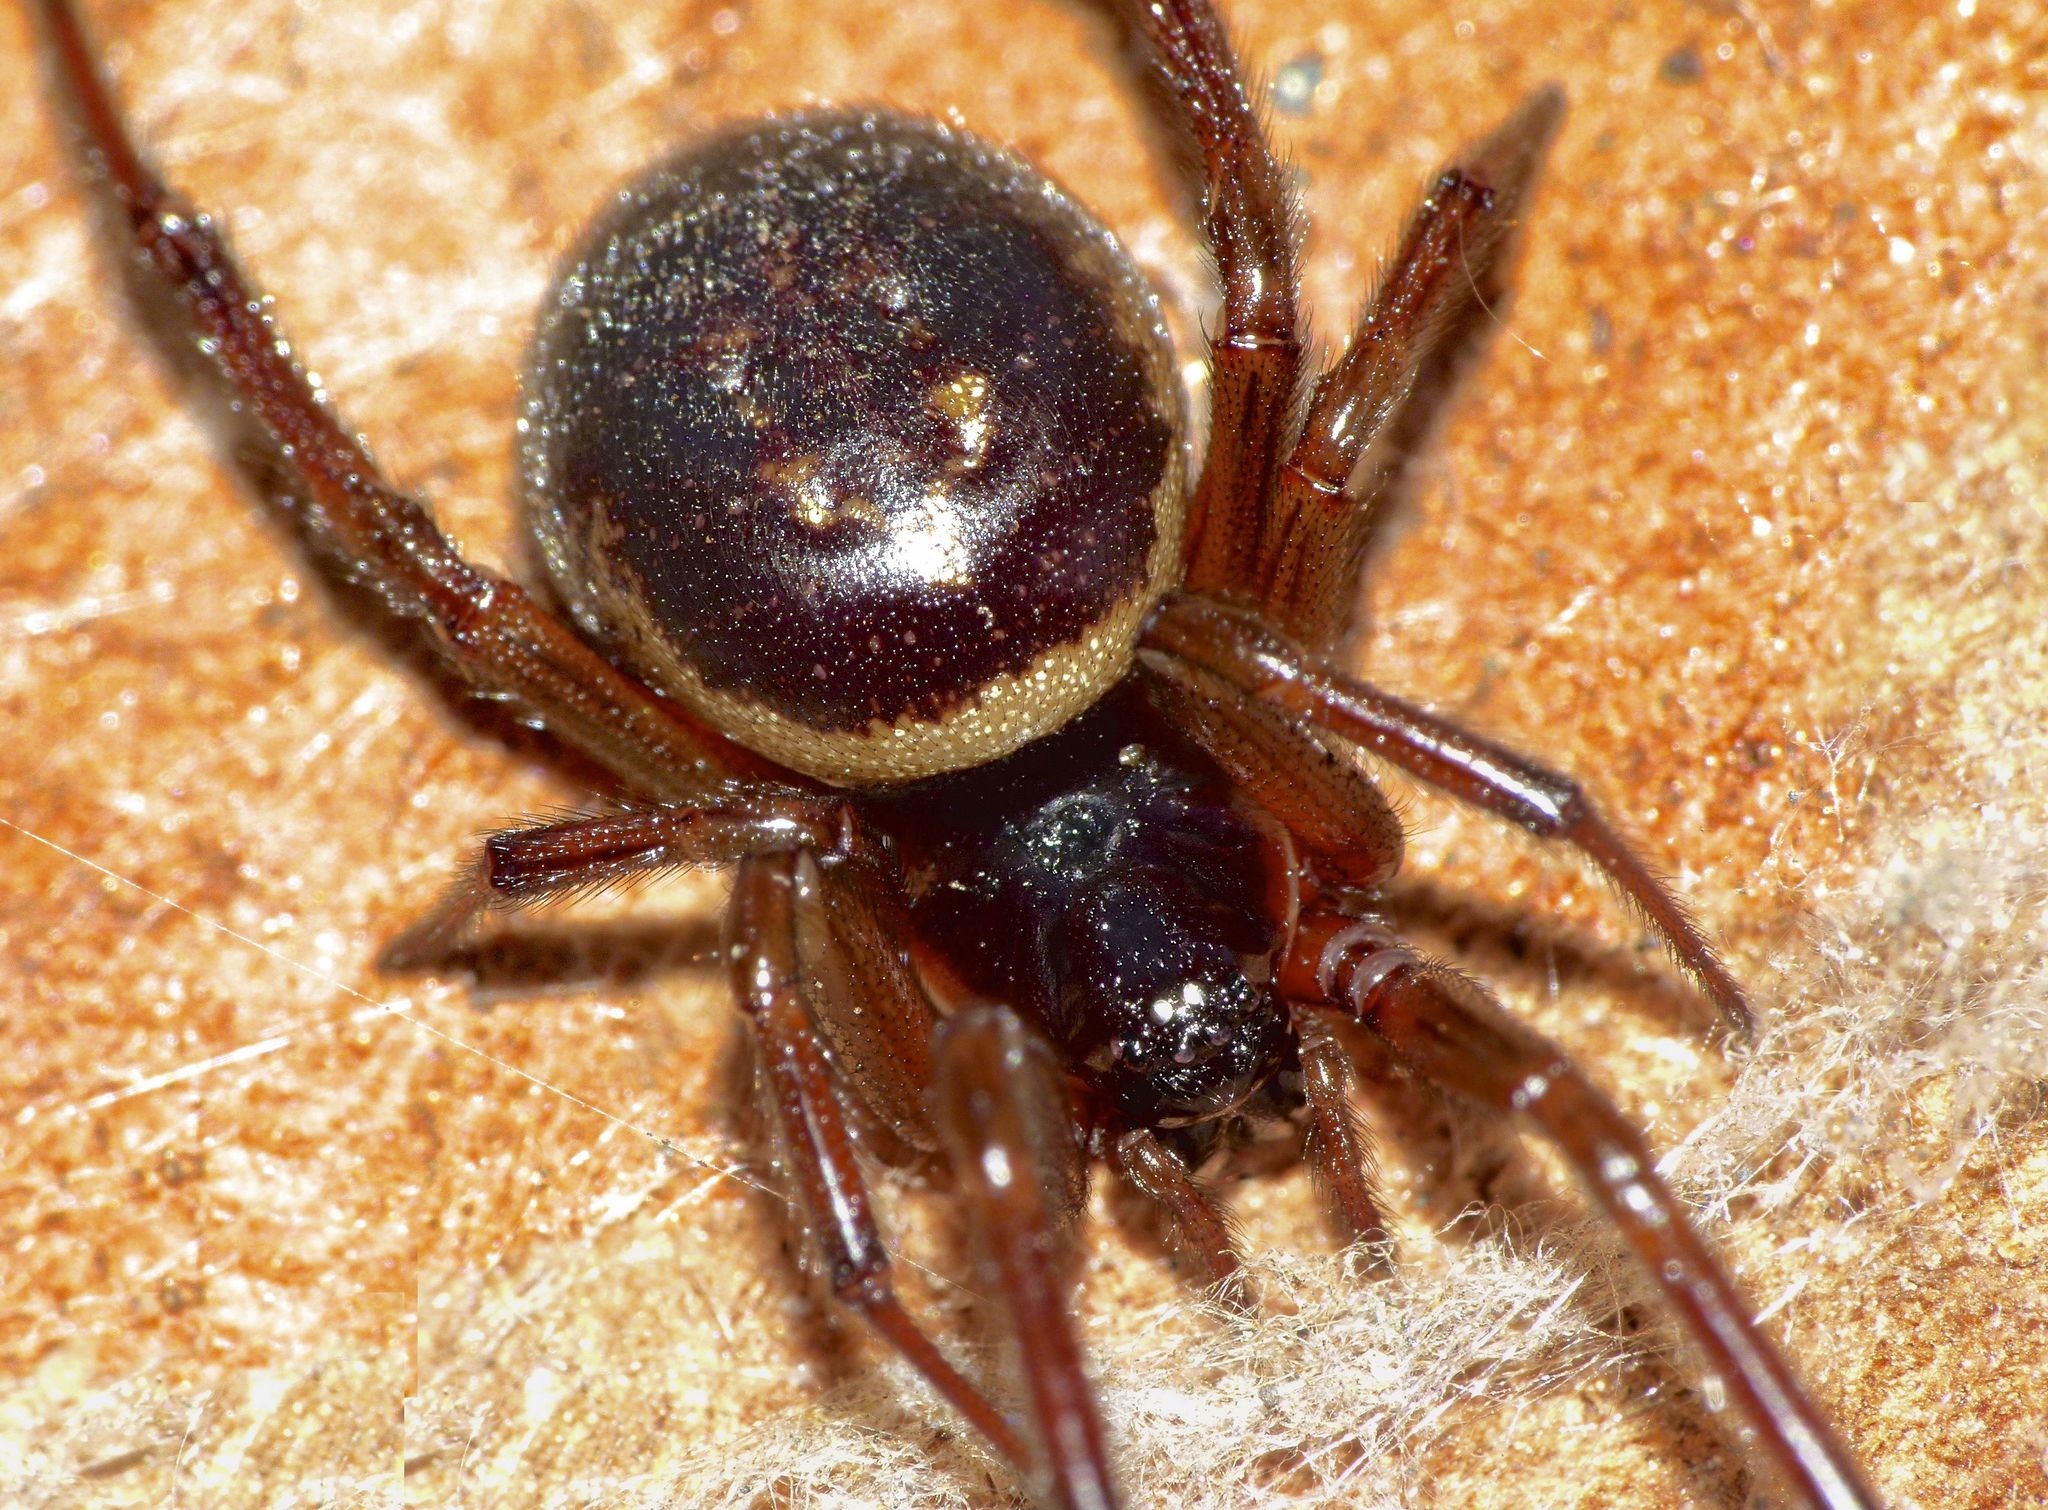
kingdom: Animalia
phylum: Arthropoda
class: Arachnida
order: Araneae
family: Theridiidae
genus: Steatoda
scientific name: Steatoda nobilis
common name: Cobweb weaver
